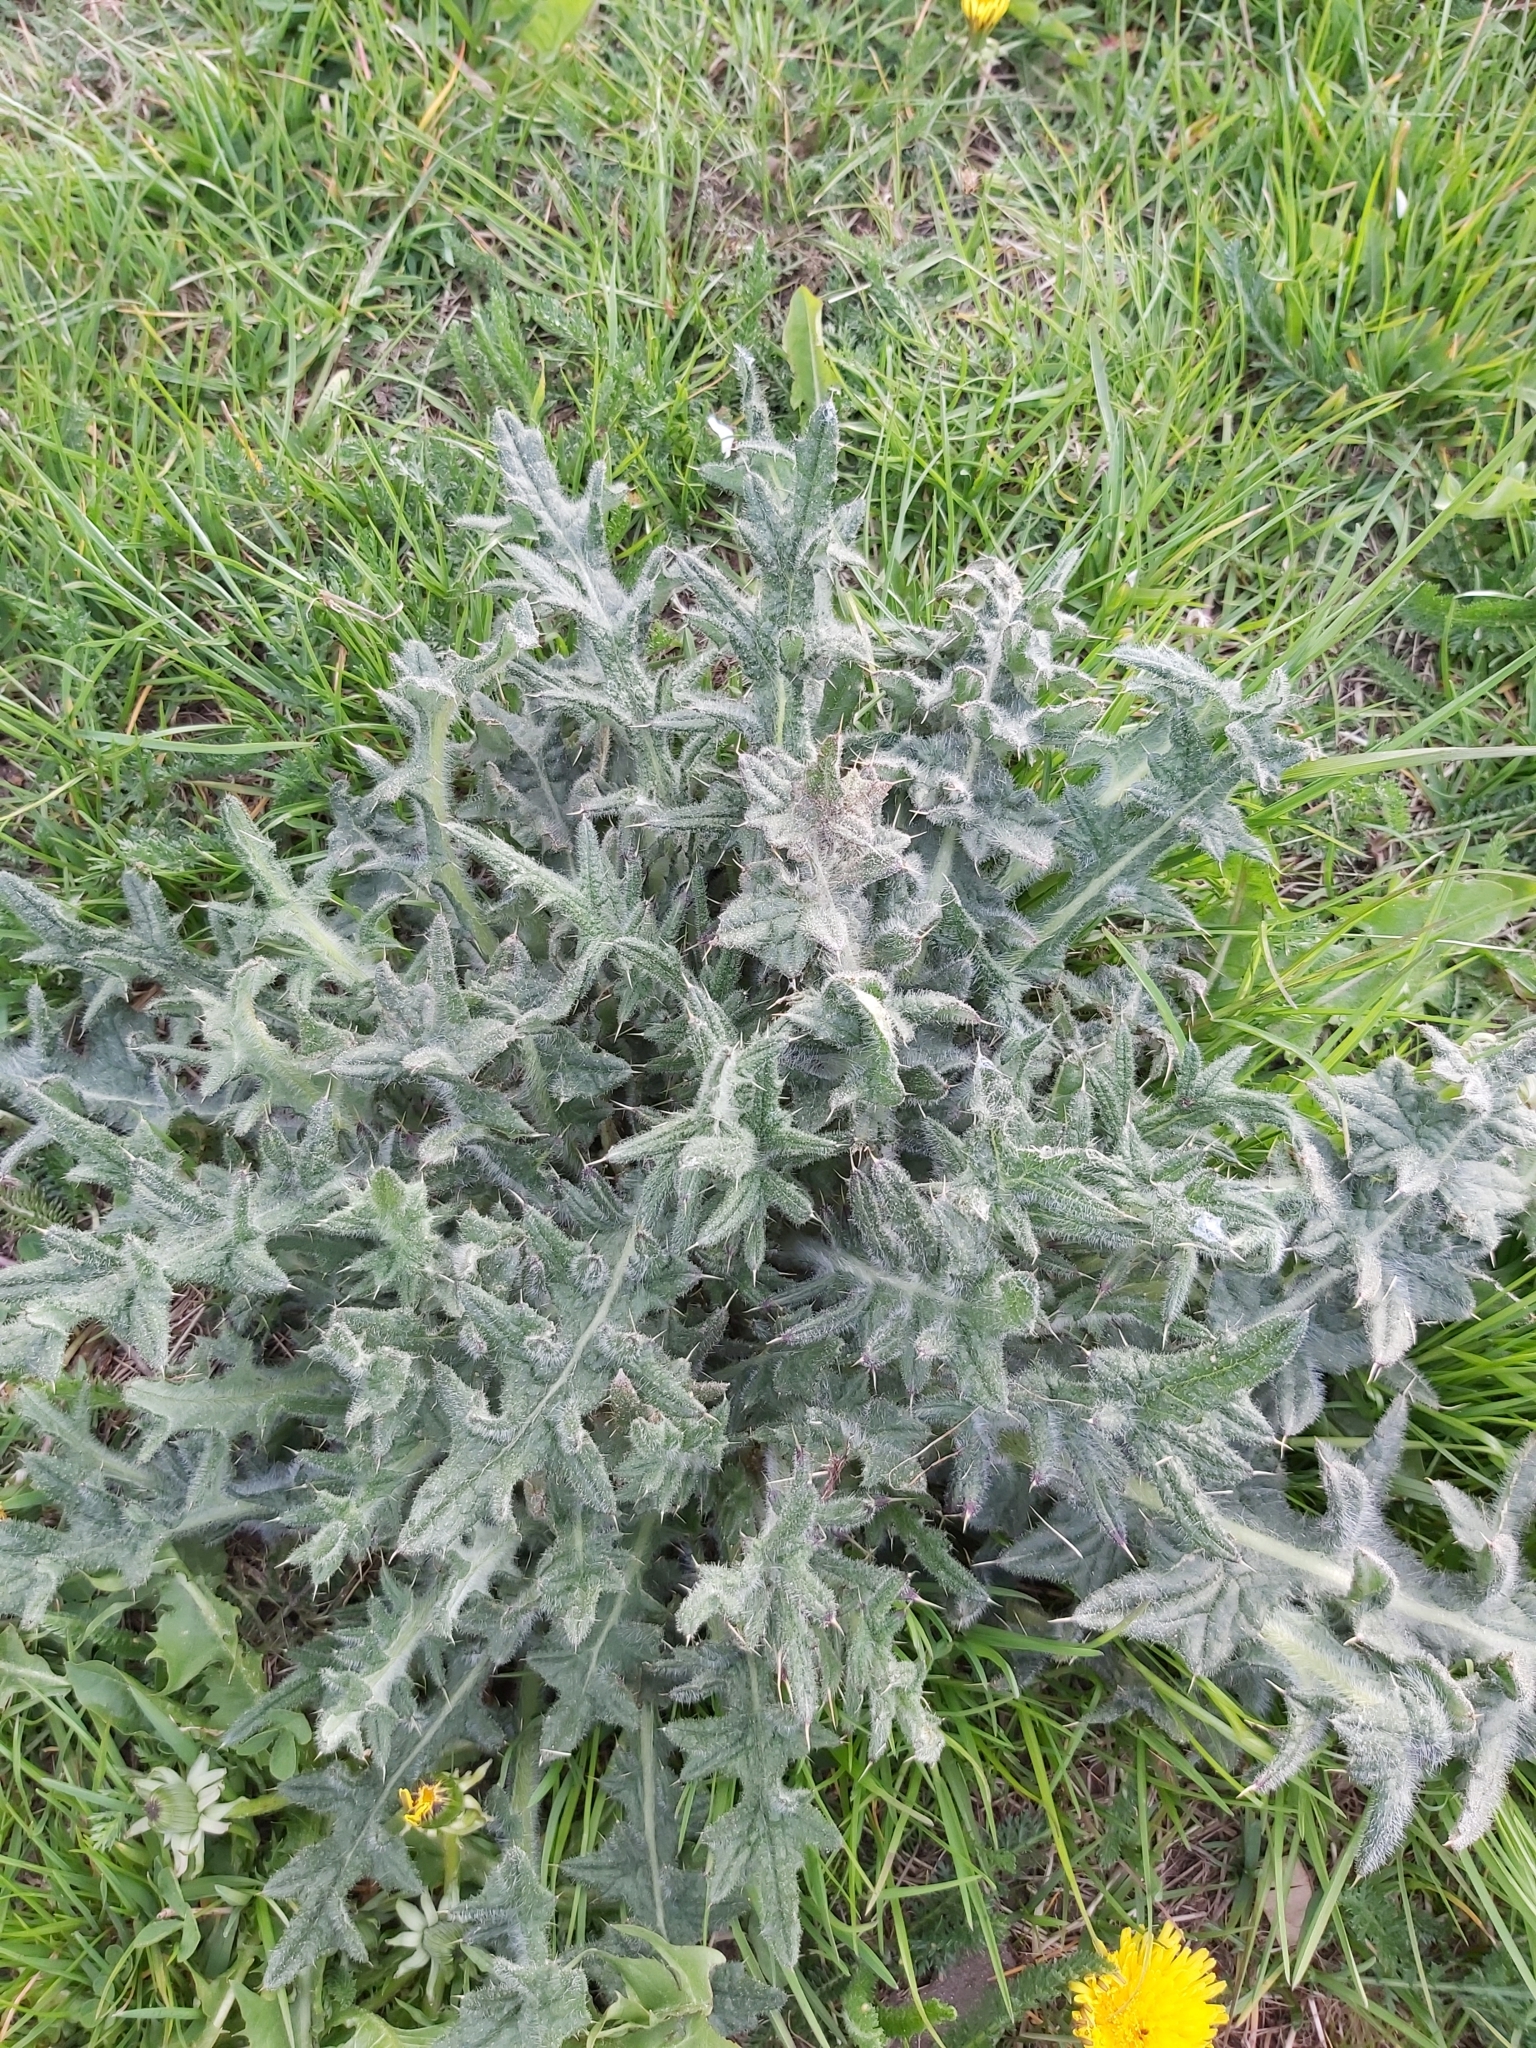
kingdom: Plantae
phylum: Tracheophyta
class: Magnoliopsida
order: Asterales
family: Asteraceae
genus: Cirsium
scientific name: Cirsium vulgare
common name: Bull thistle
